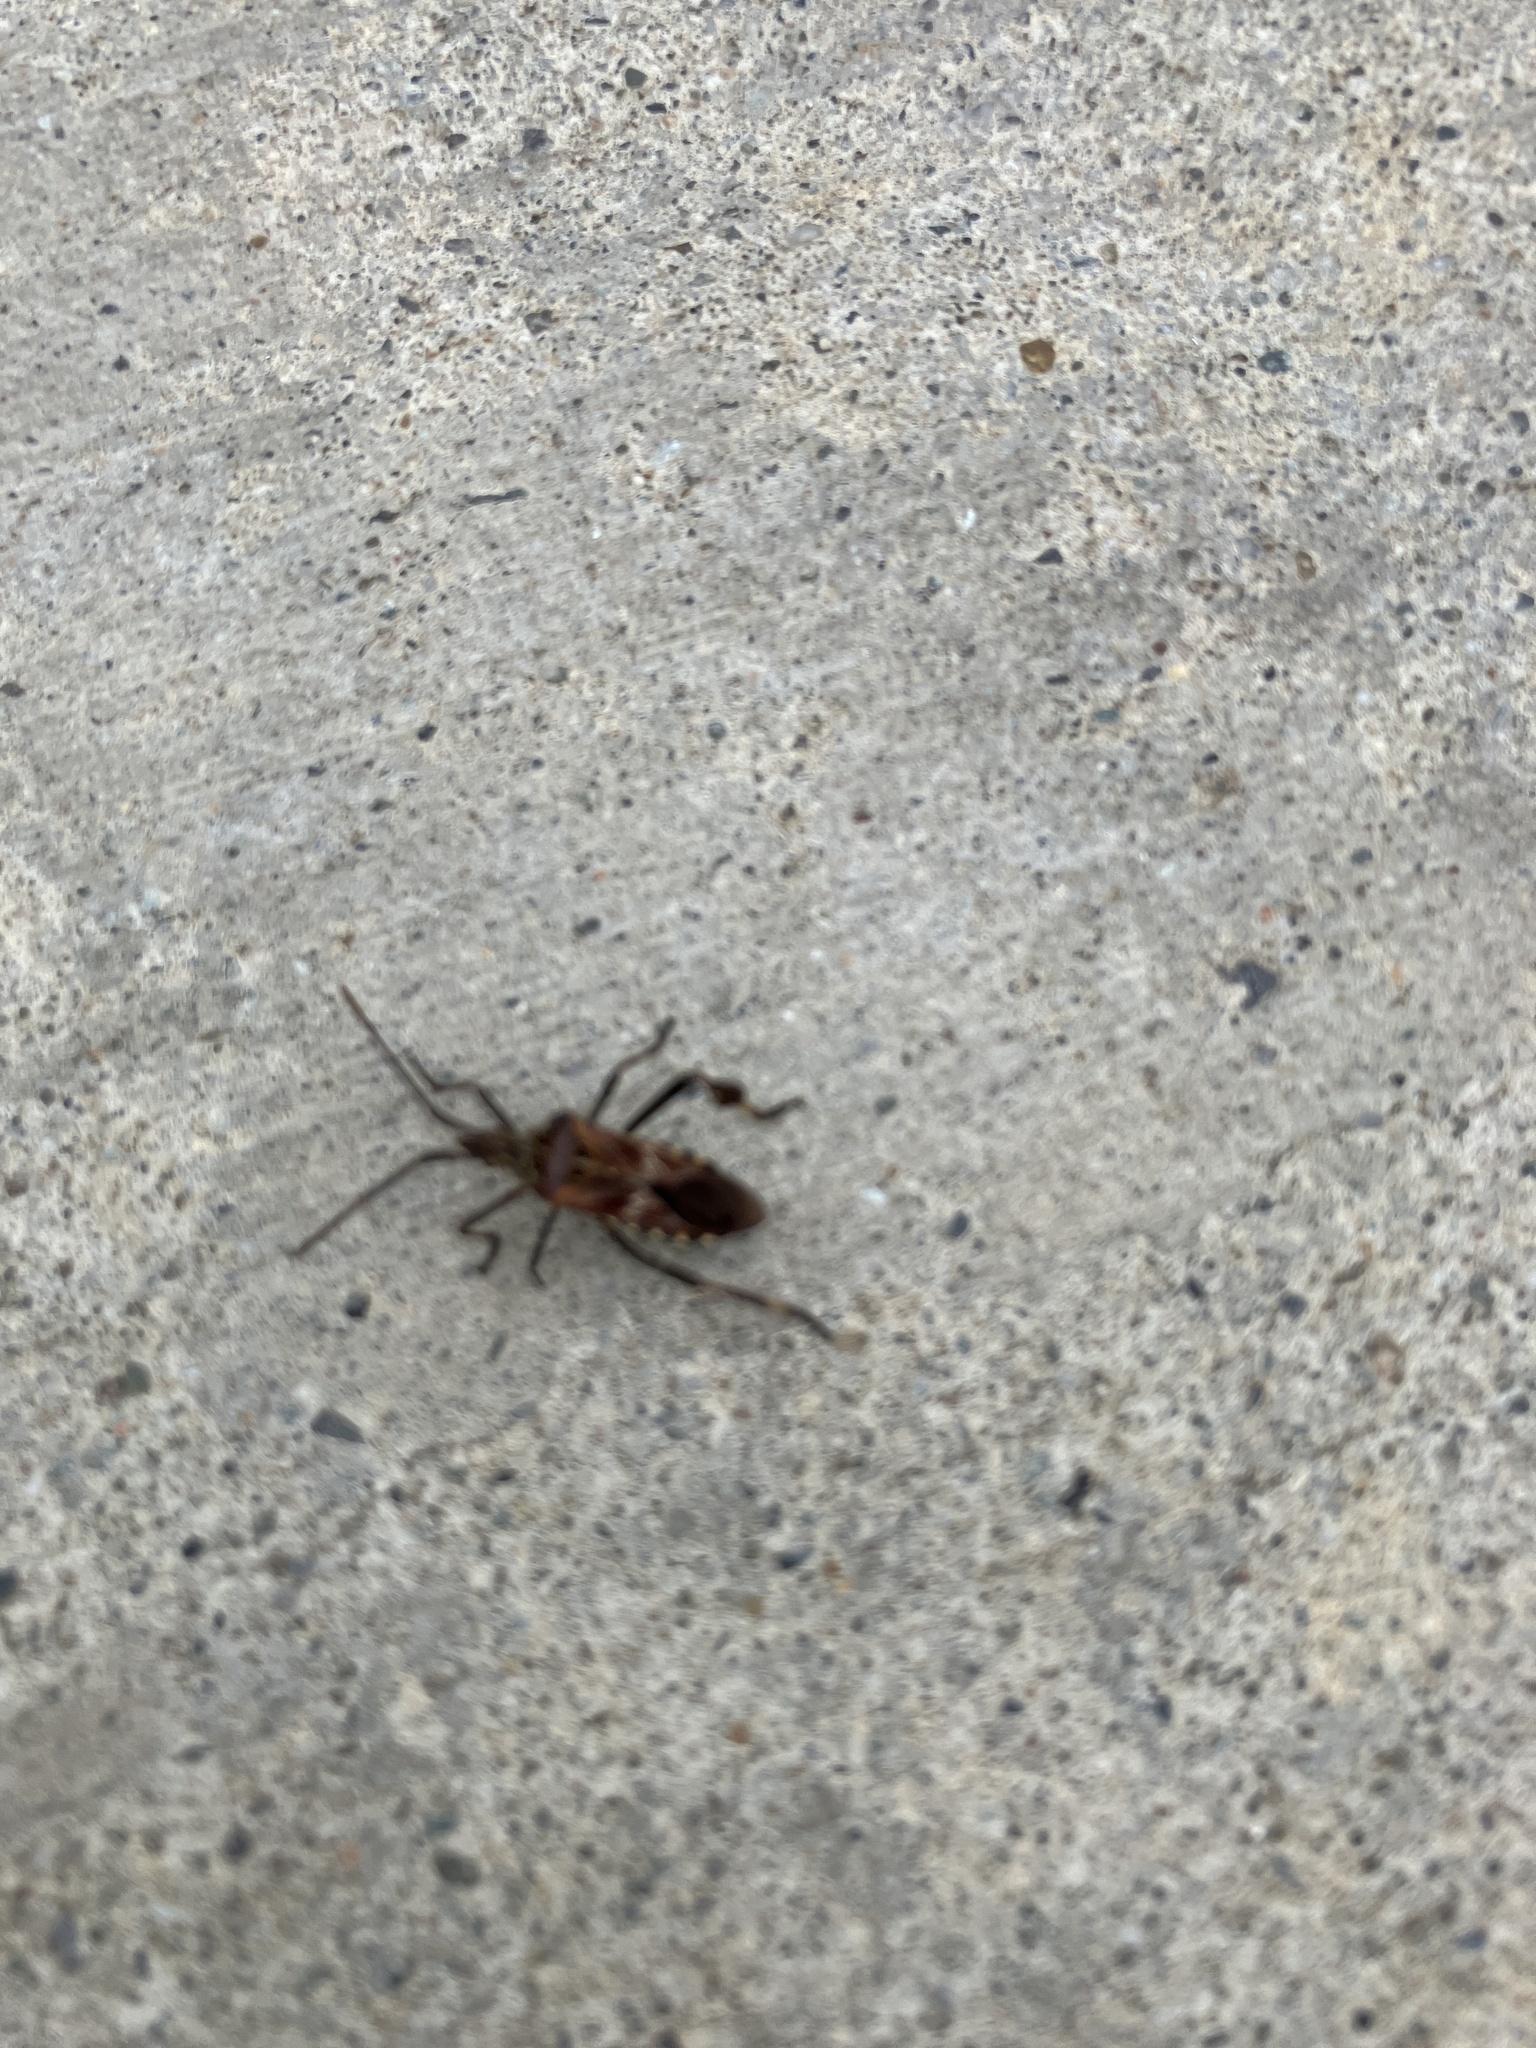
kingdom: Animalia
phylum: Arthropoda
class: Insecta
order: Hemiptera
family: Coreidae
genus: Leptoglossus
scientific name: Leptoglossus occidentalis
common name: Western conifer-seed bug
